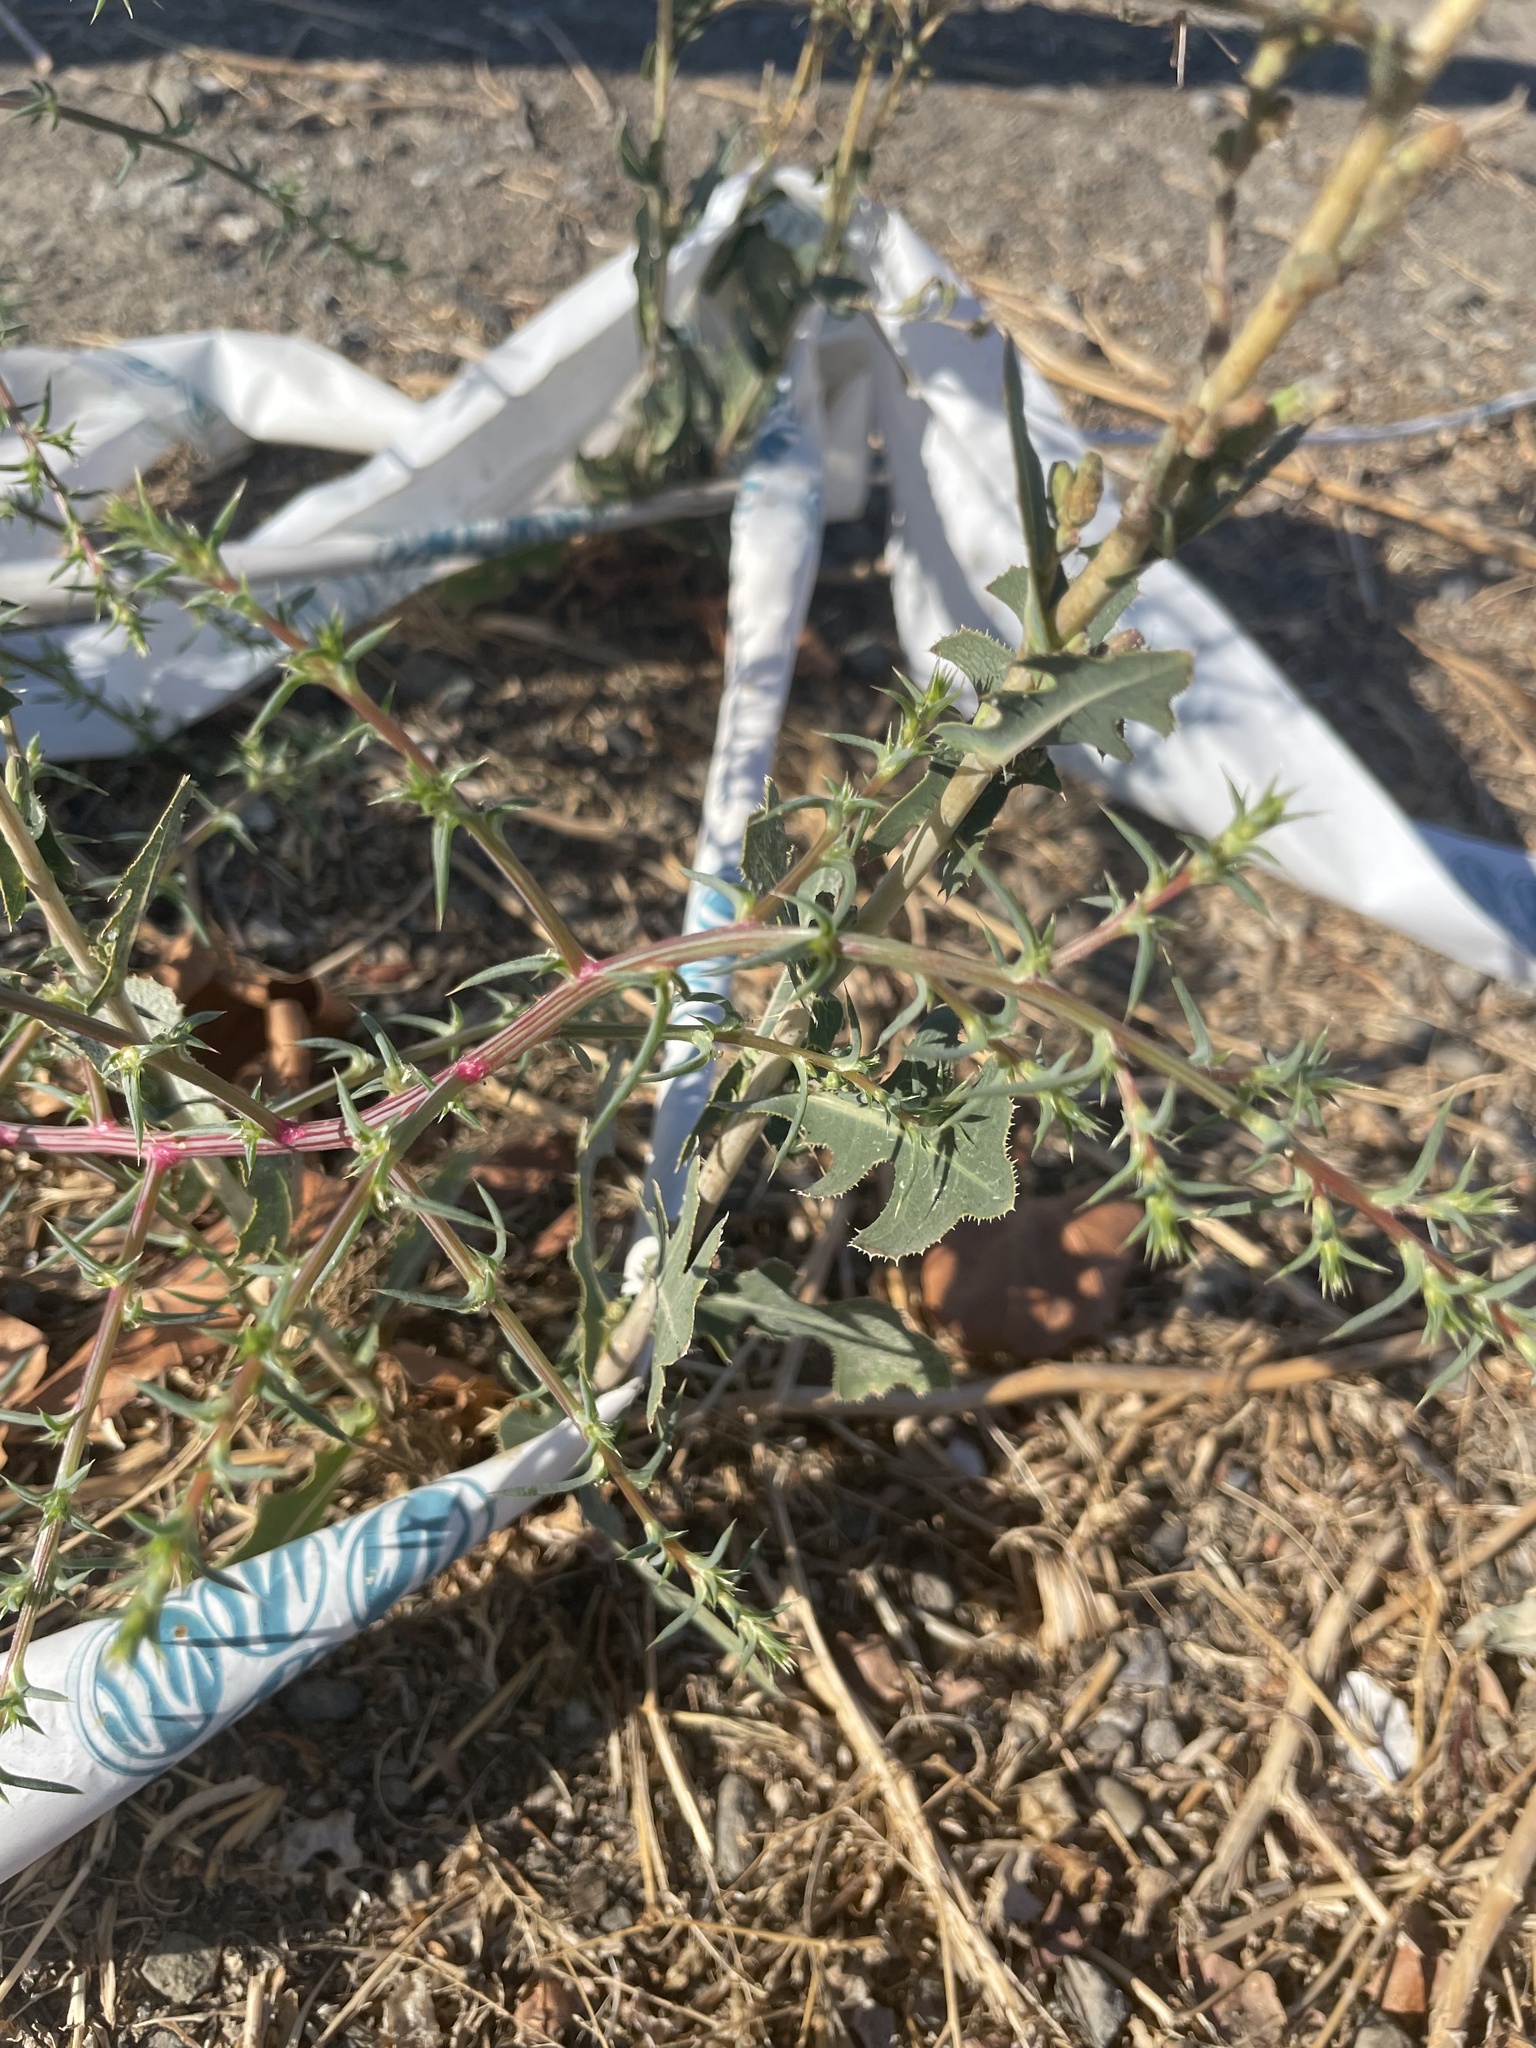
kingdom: Plantae
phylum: Tracheophyta
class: Magnoliopsida
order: Asterales
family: Asteraceae
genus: Lactuca
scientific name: Lactuca serriola
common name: Prickly lettuce
